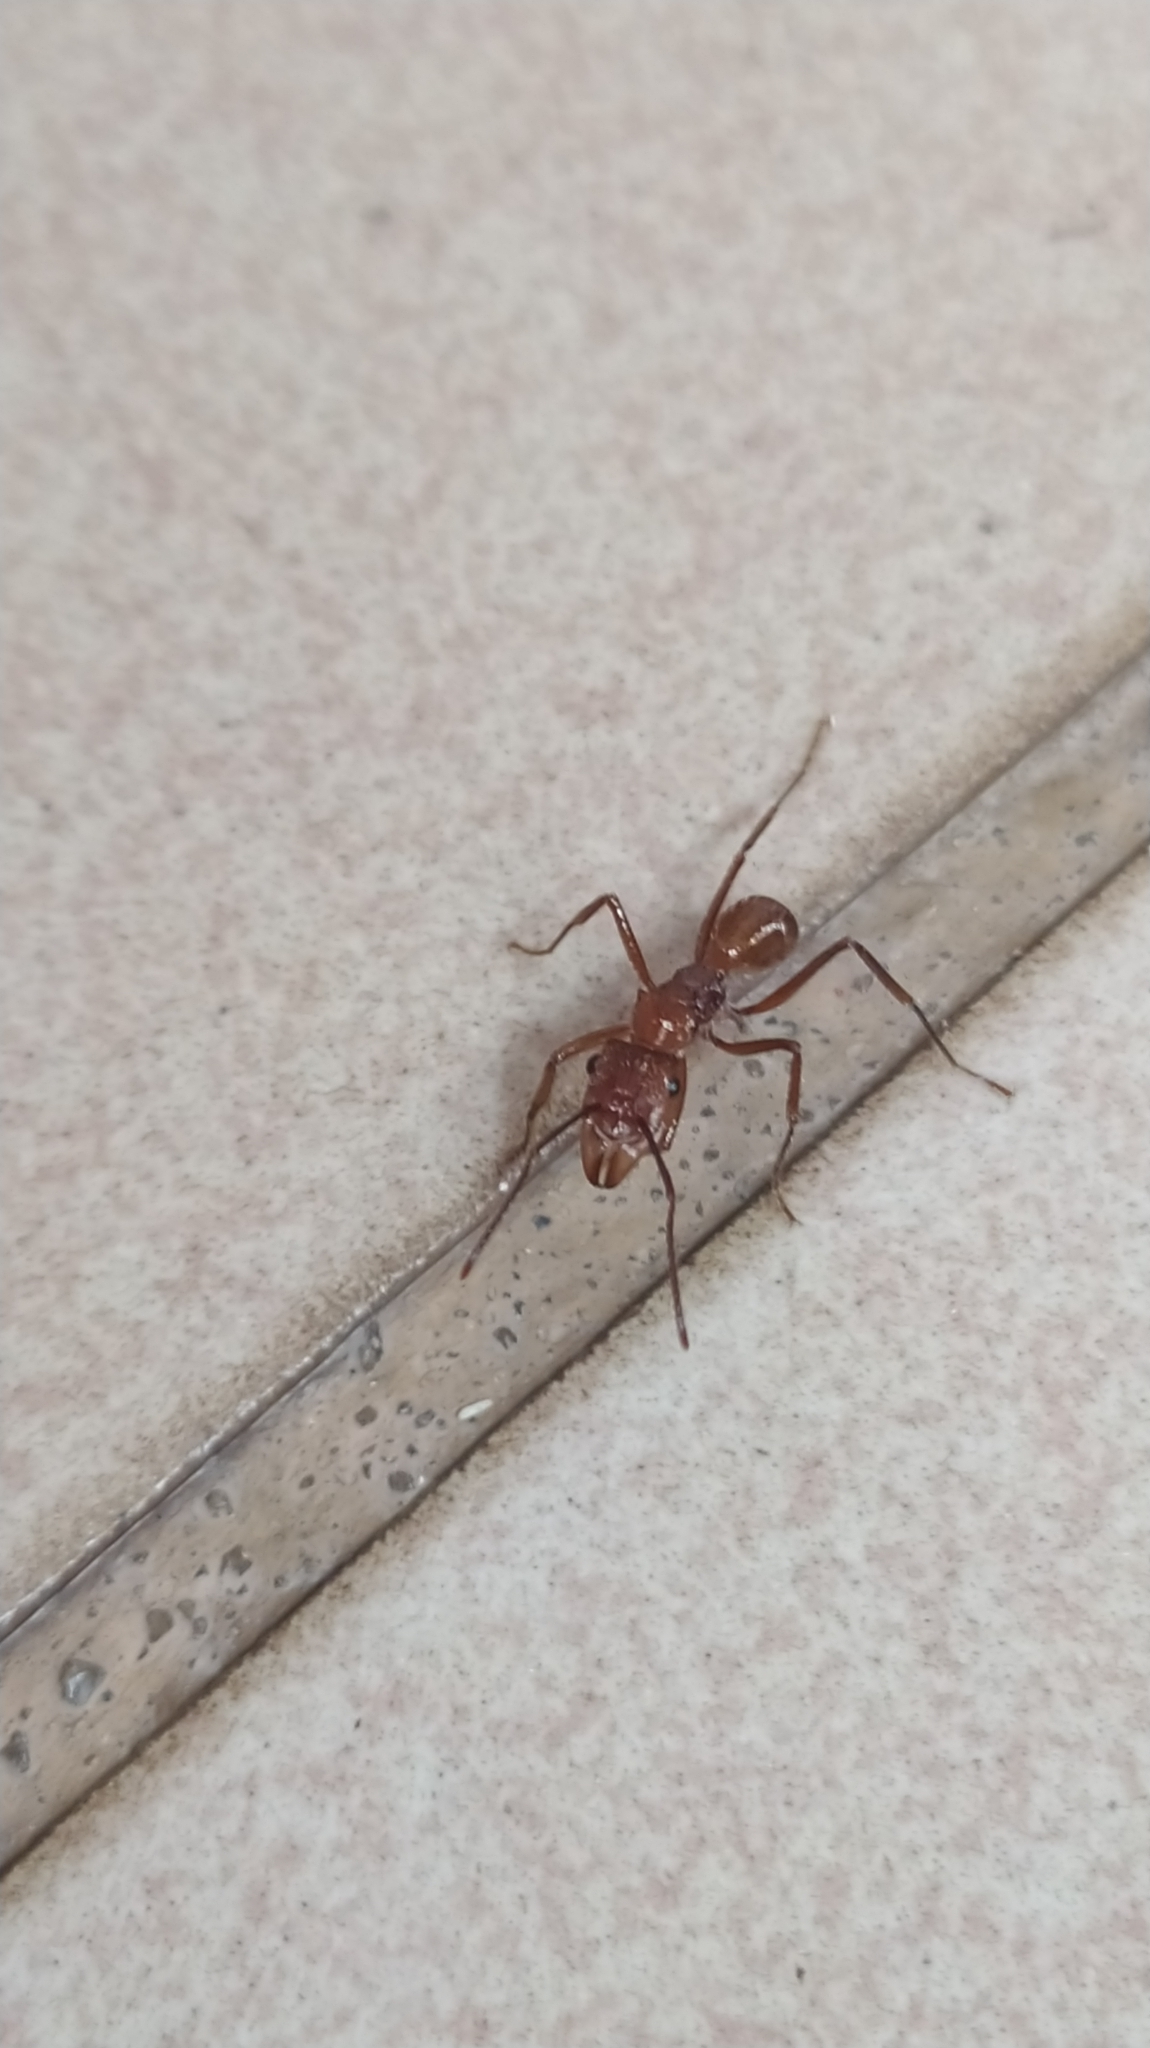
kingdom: Animalia
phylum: Arthropoda
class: Insecta
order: Hymenoptera
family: Formicidae
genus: Ectatomma
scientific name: Ectatomma tuberculatum
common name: Ant
